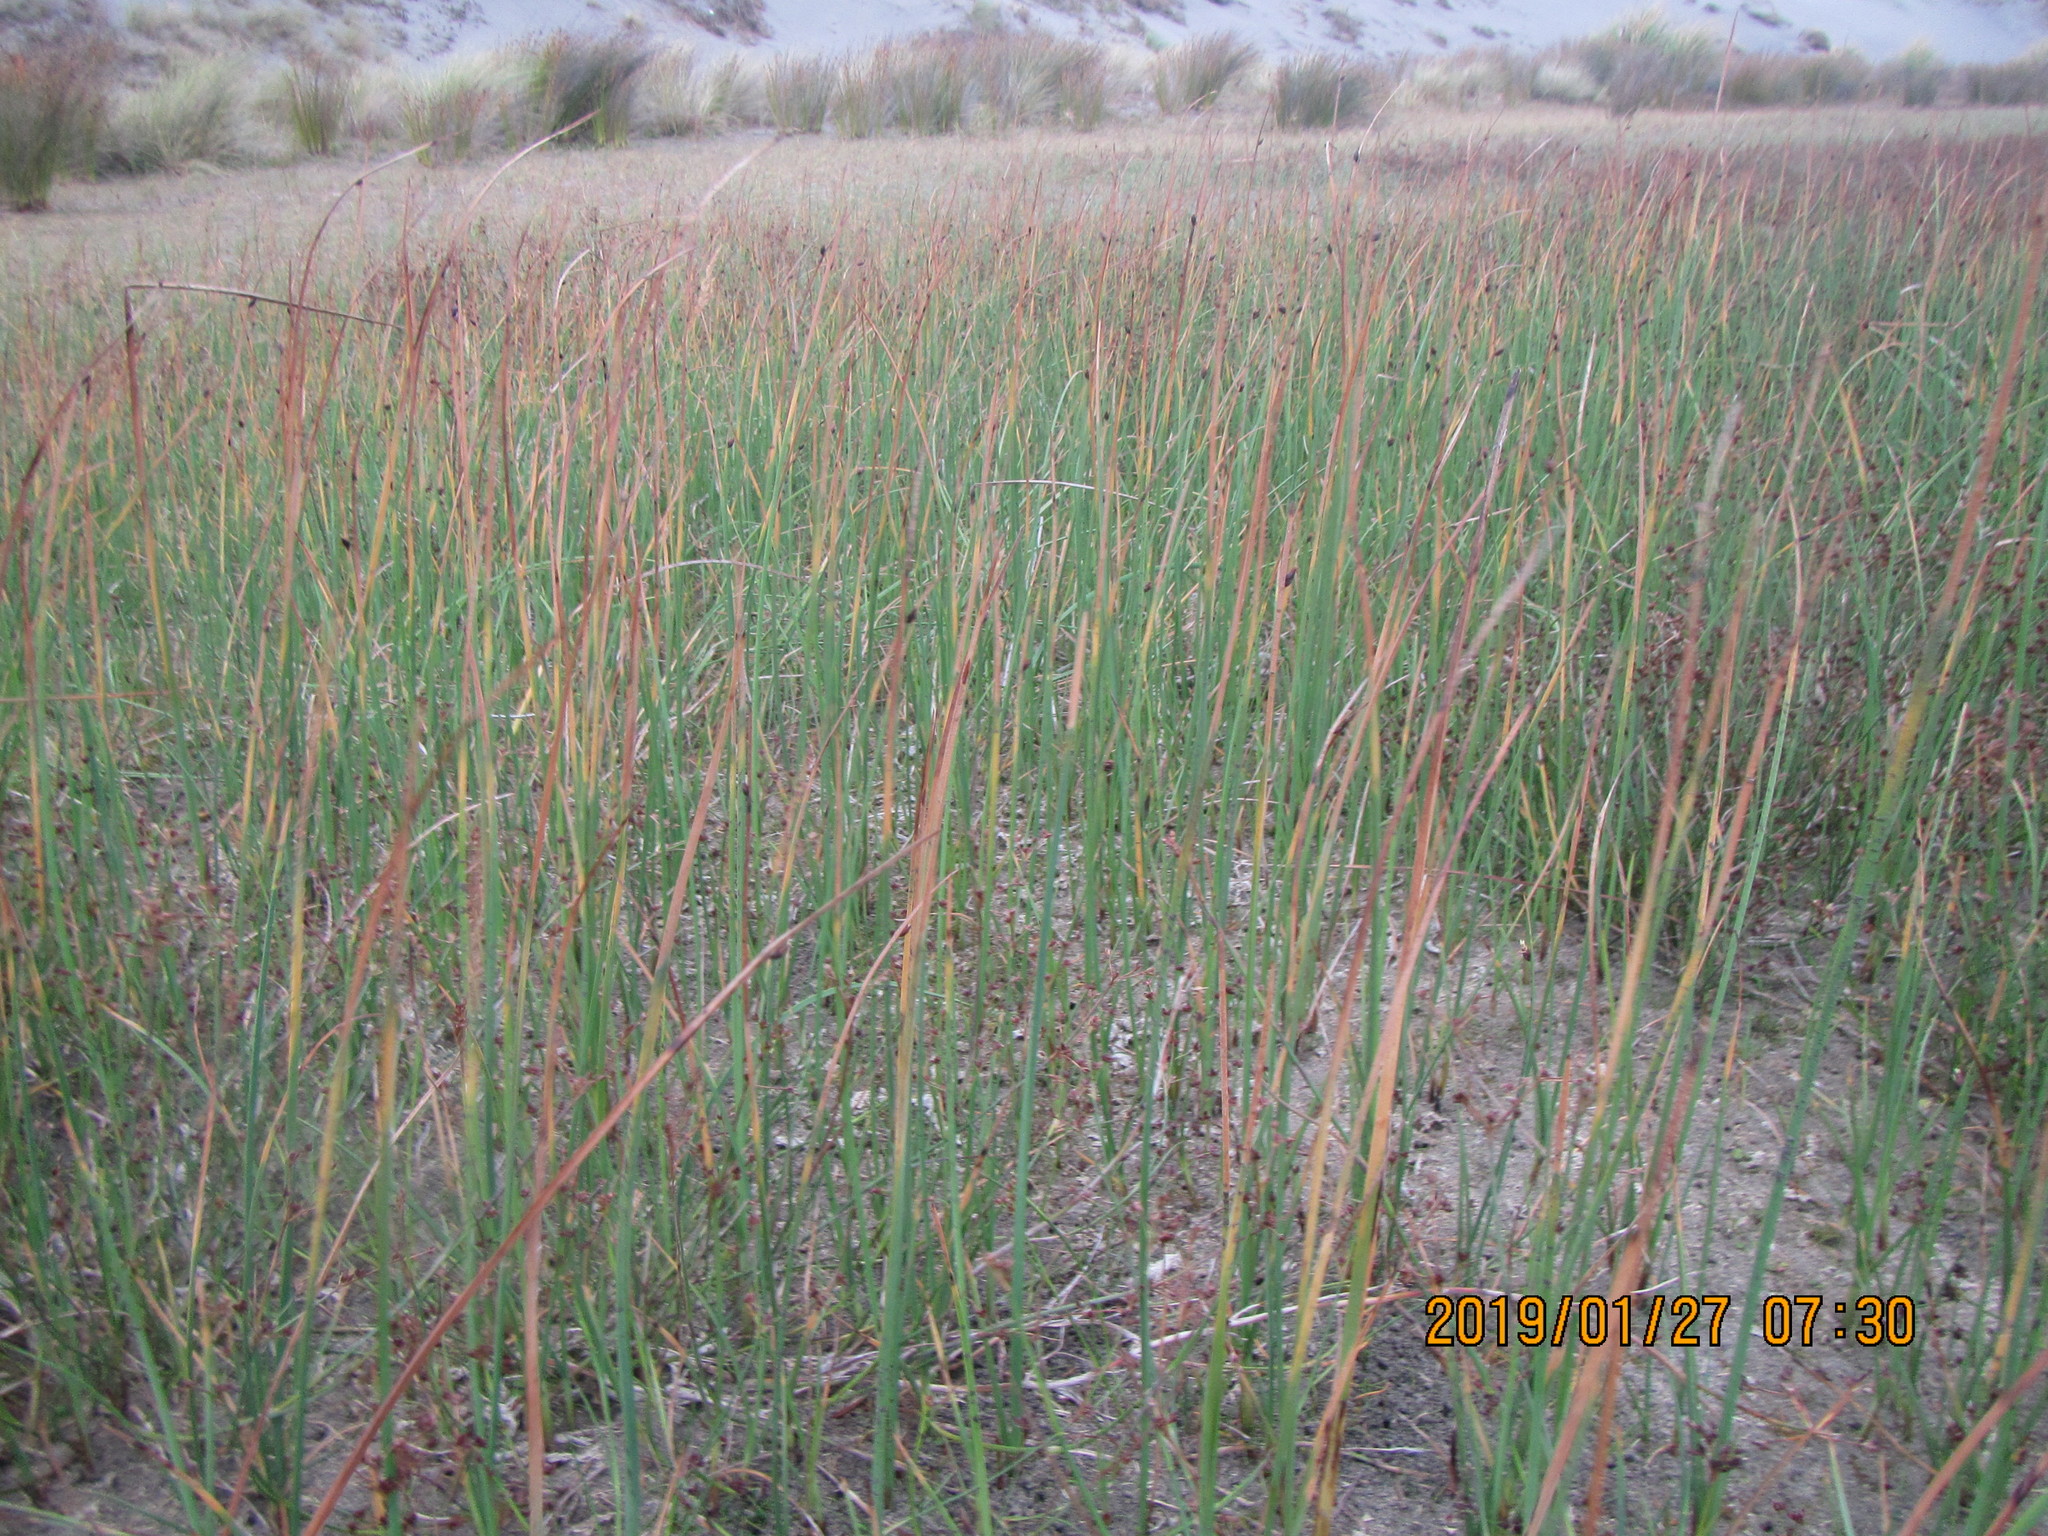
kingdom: Plantae
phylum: Tracheophyta
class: Liliopsida
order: Poales
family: Cyperaceae
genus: Schoenoplectus
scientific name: Schoenoplectus pungens
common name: Sharp club-rush
